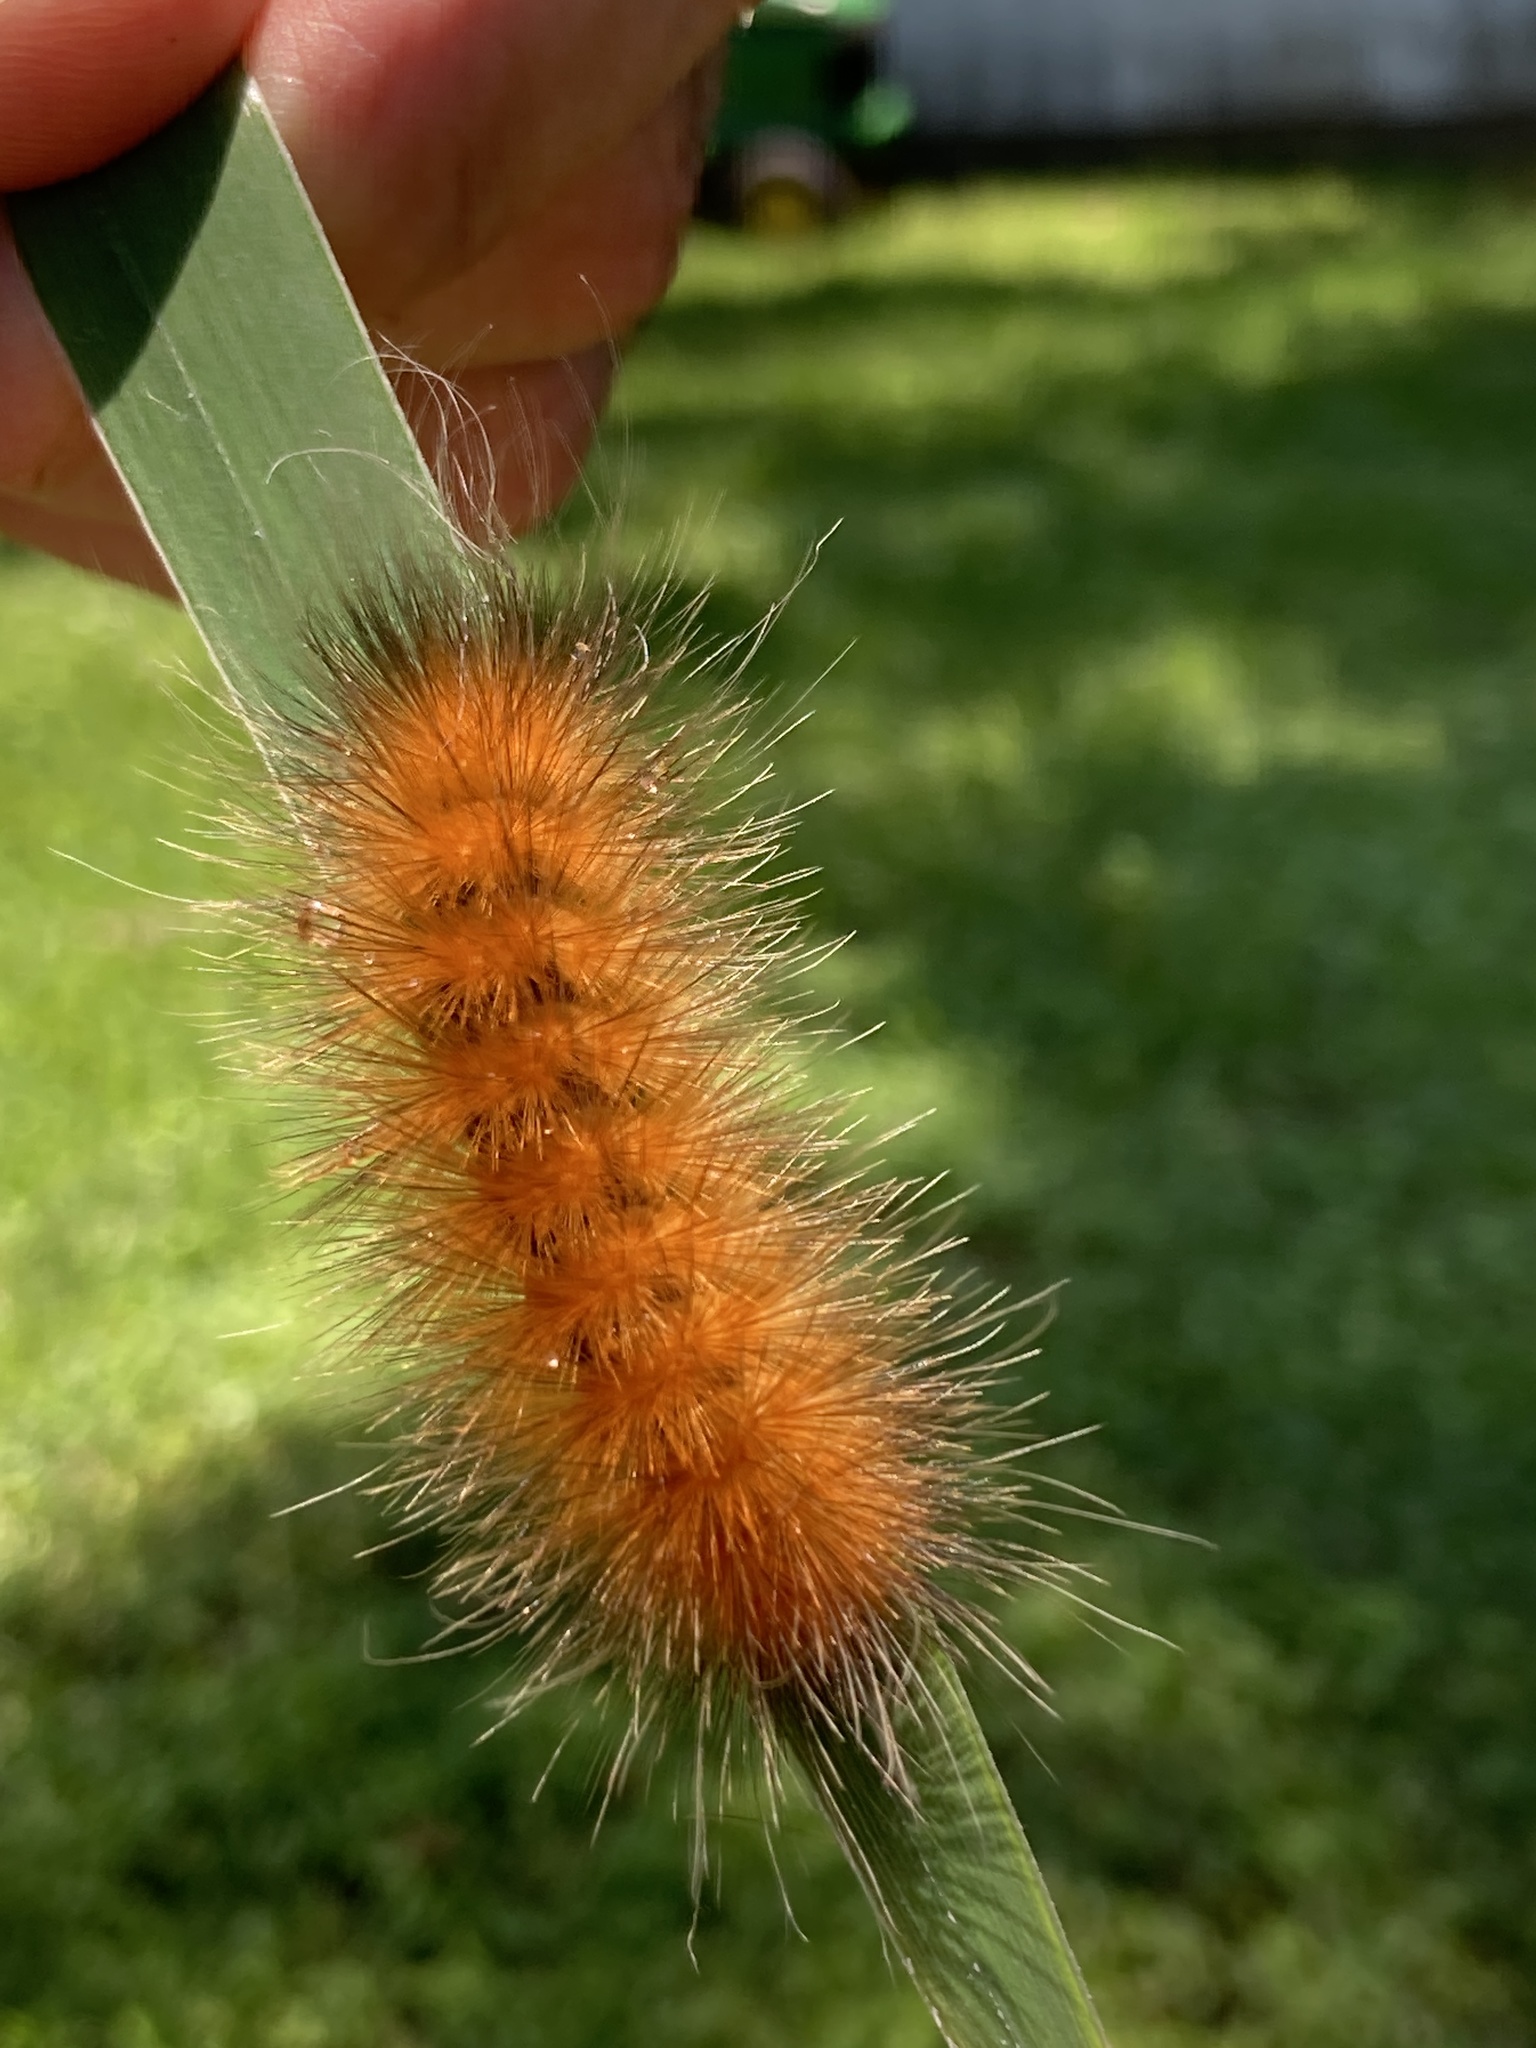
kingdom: Animalia
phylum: Arthropoda
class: Insecta
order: Lepidoptera
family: Erebidae
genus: Spilosoma
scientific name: Spilosoma virginica
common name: Virginia tiger moth
